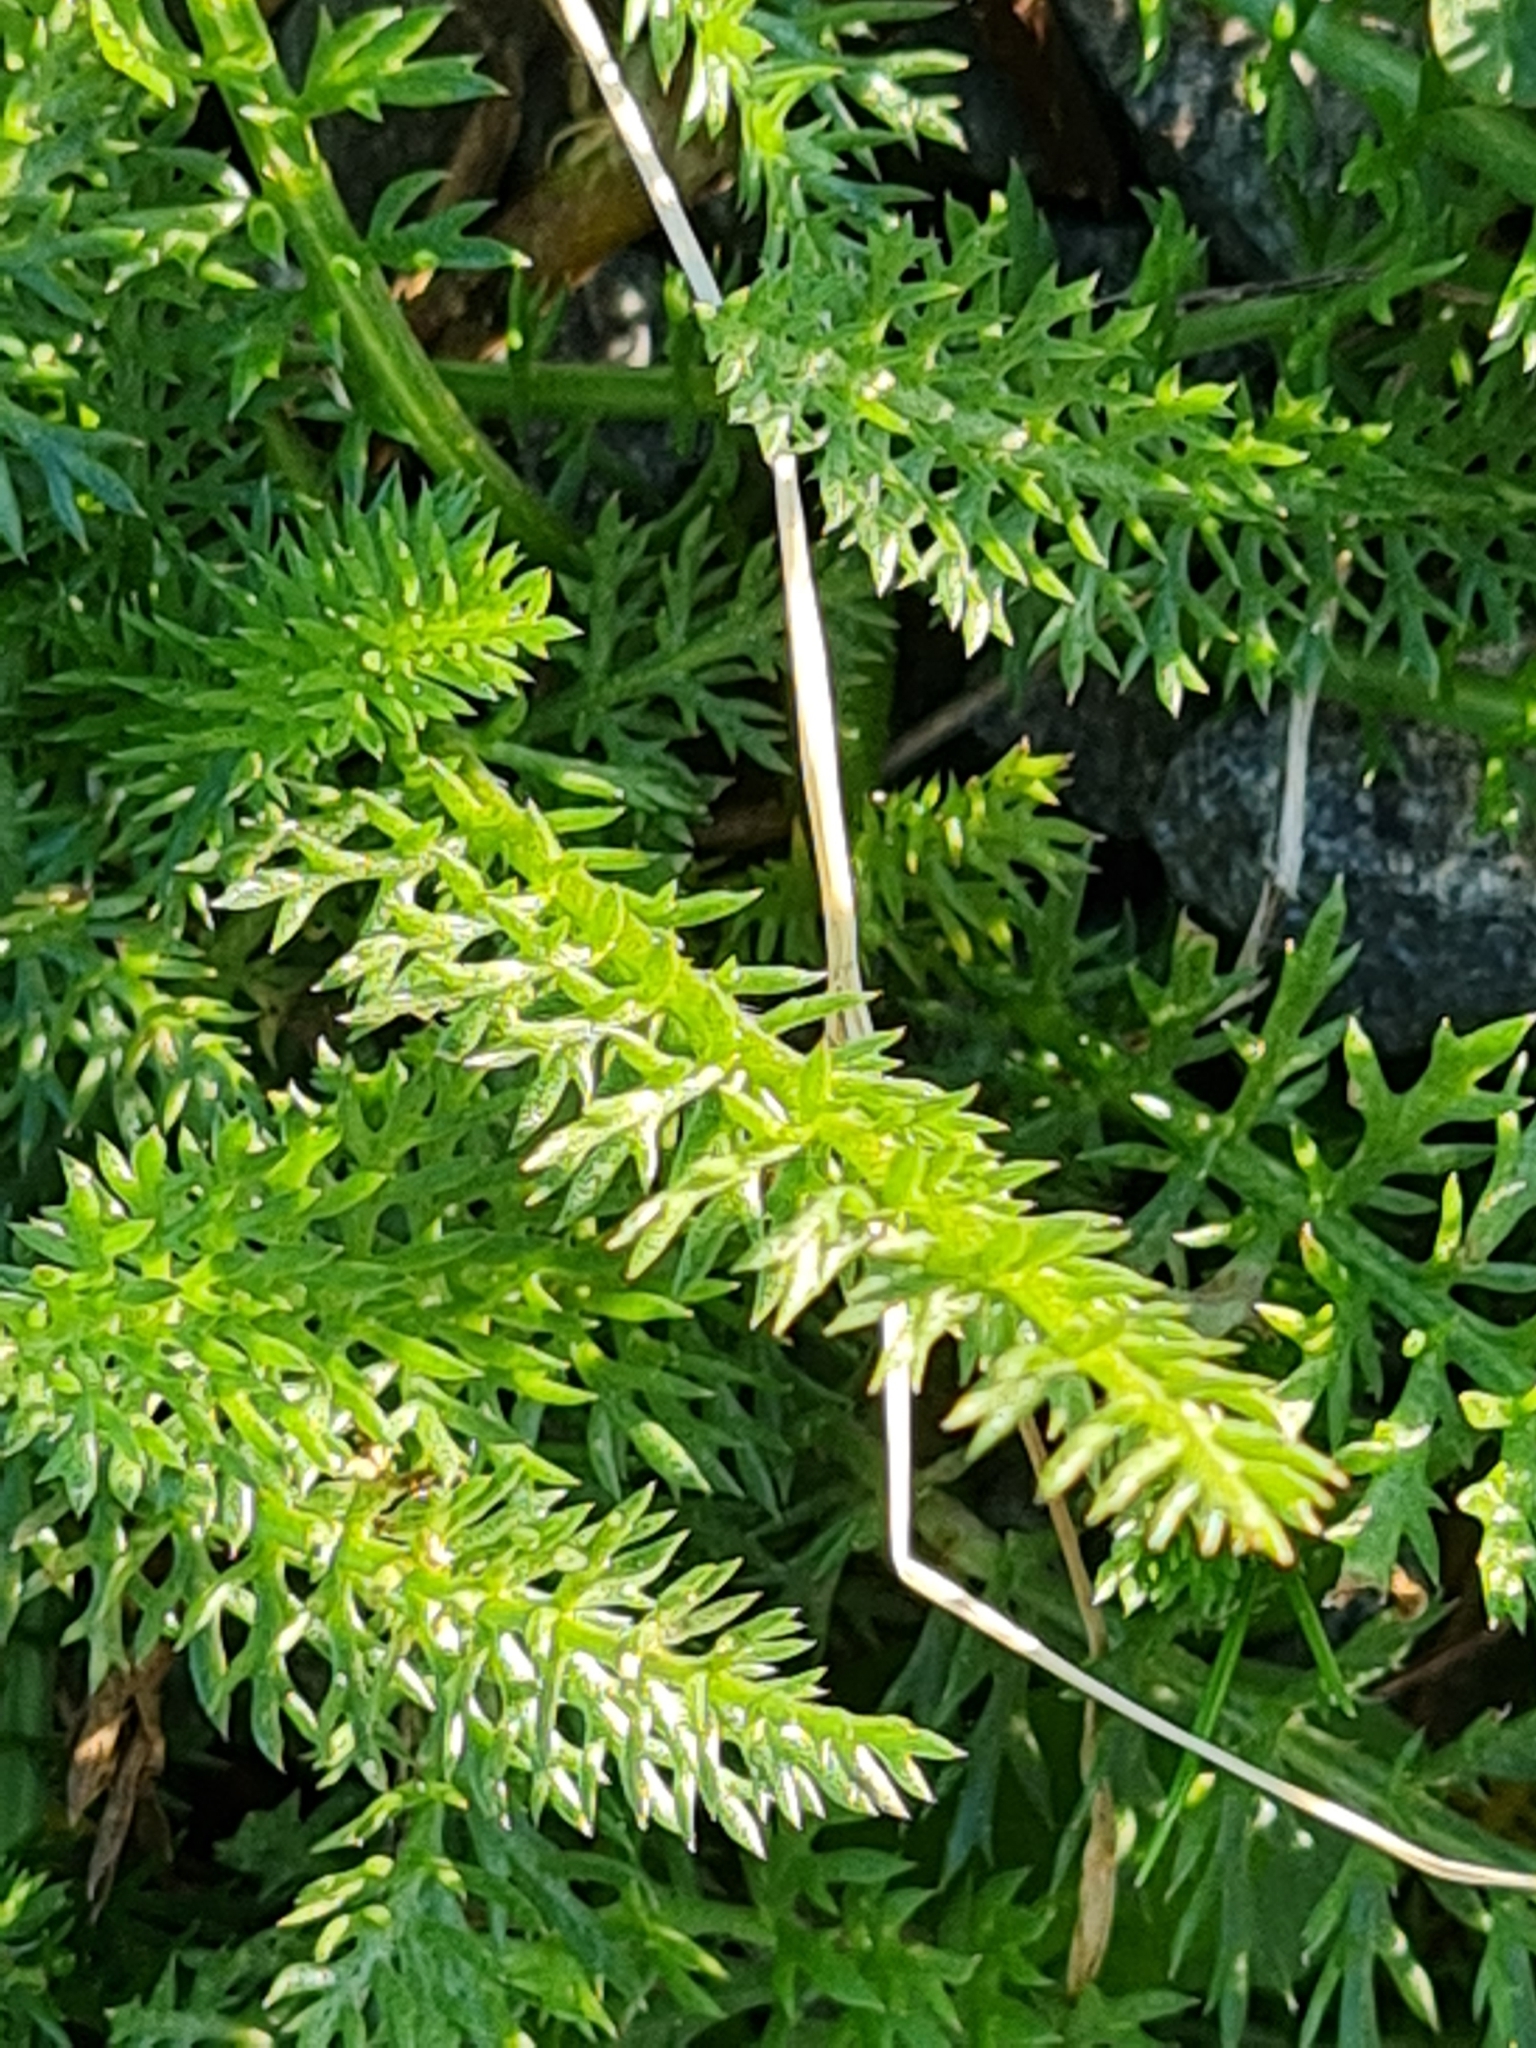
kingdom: Plantae
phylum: Tracheophyta
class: Magnoliopsida
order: Asterales
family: Asteraceae
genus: Achillea
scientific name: Achillea millefolium
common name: Yarrow
